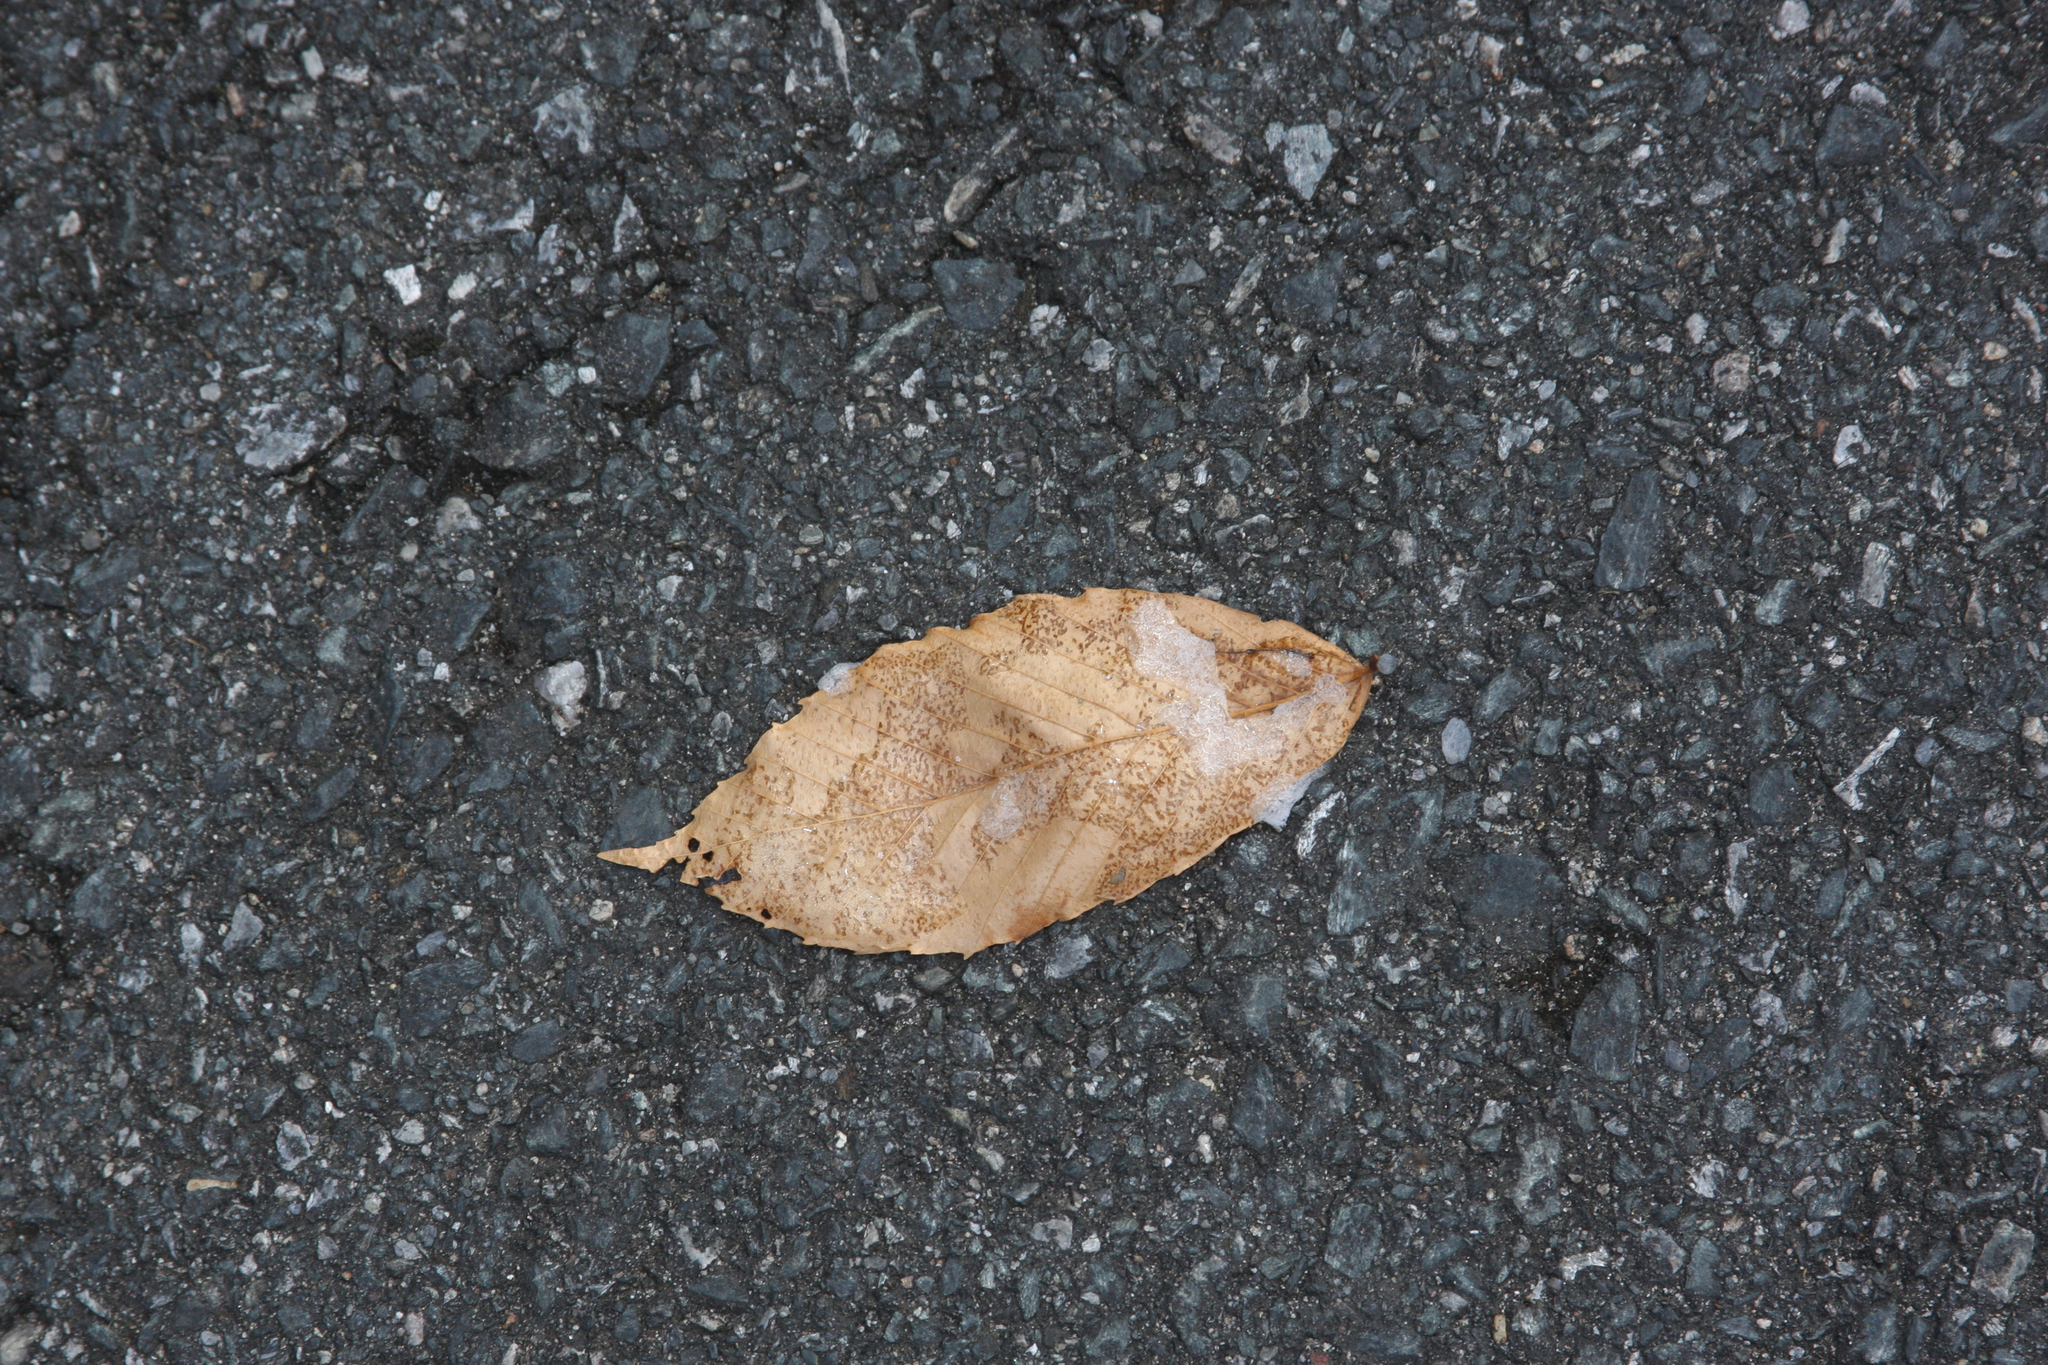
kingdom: Plantae
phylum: Tracheophyta
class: Magnoliopsida
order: Fagales
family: Fagaceae
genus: Fagus
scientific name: Fagus grandifolia
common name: American beech
